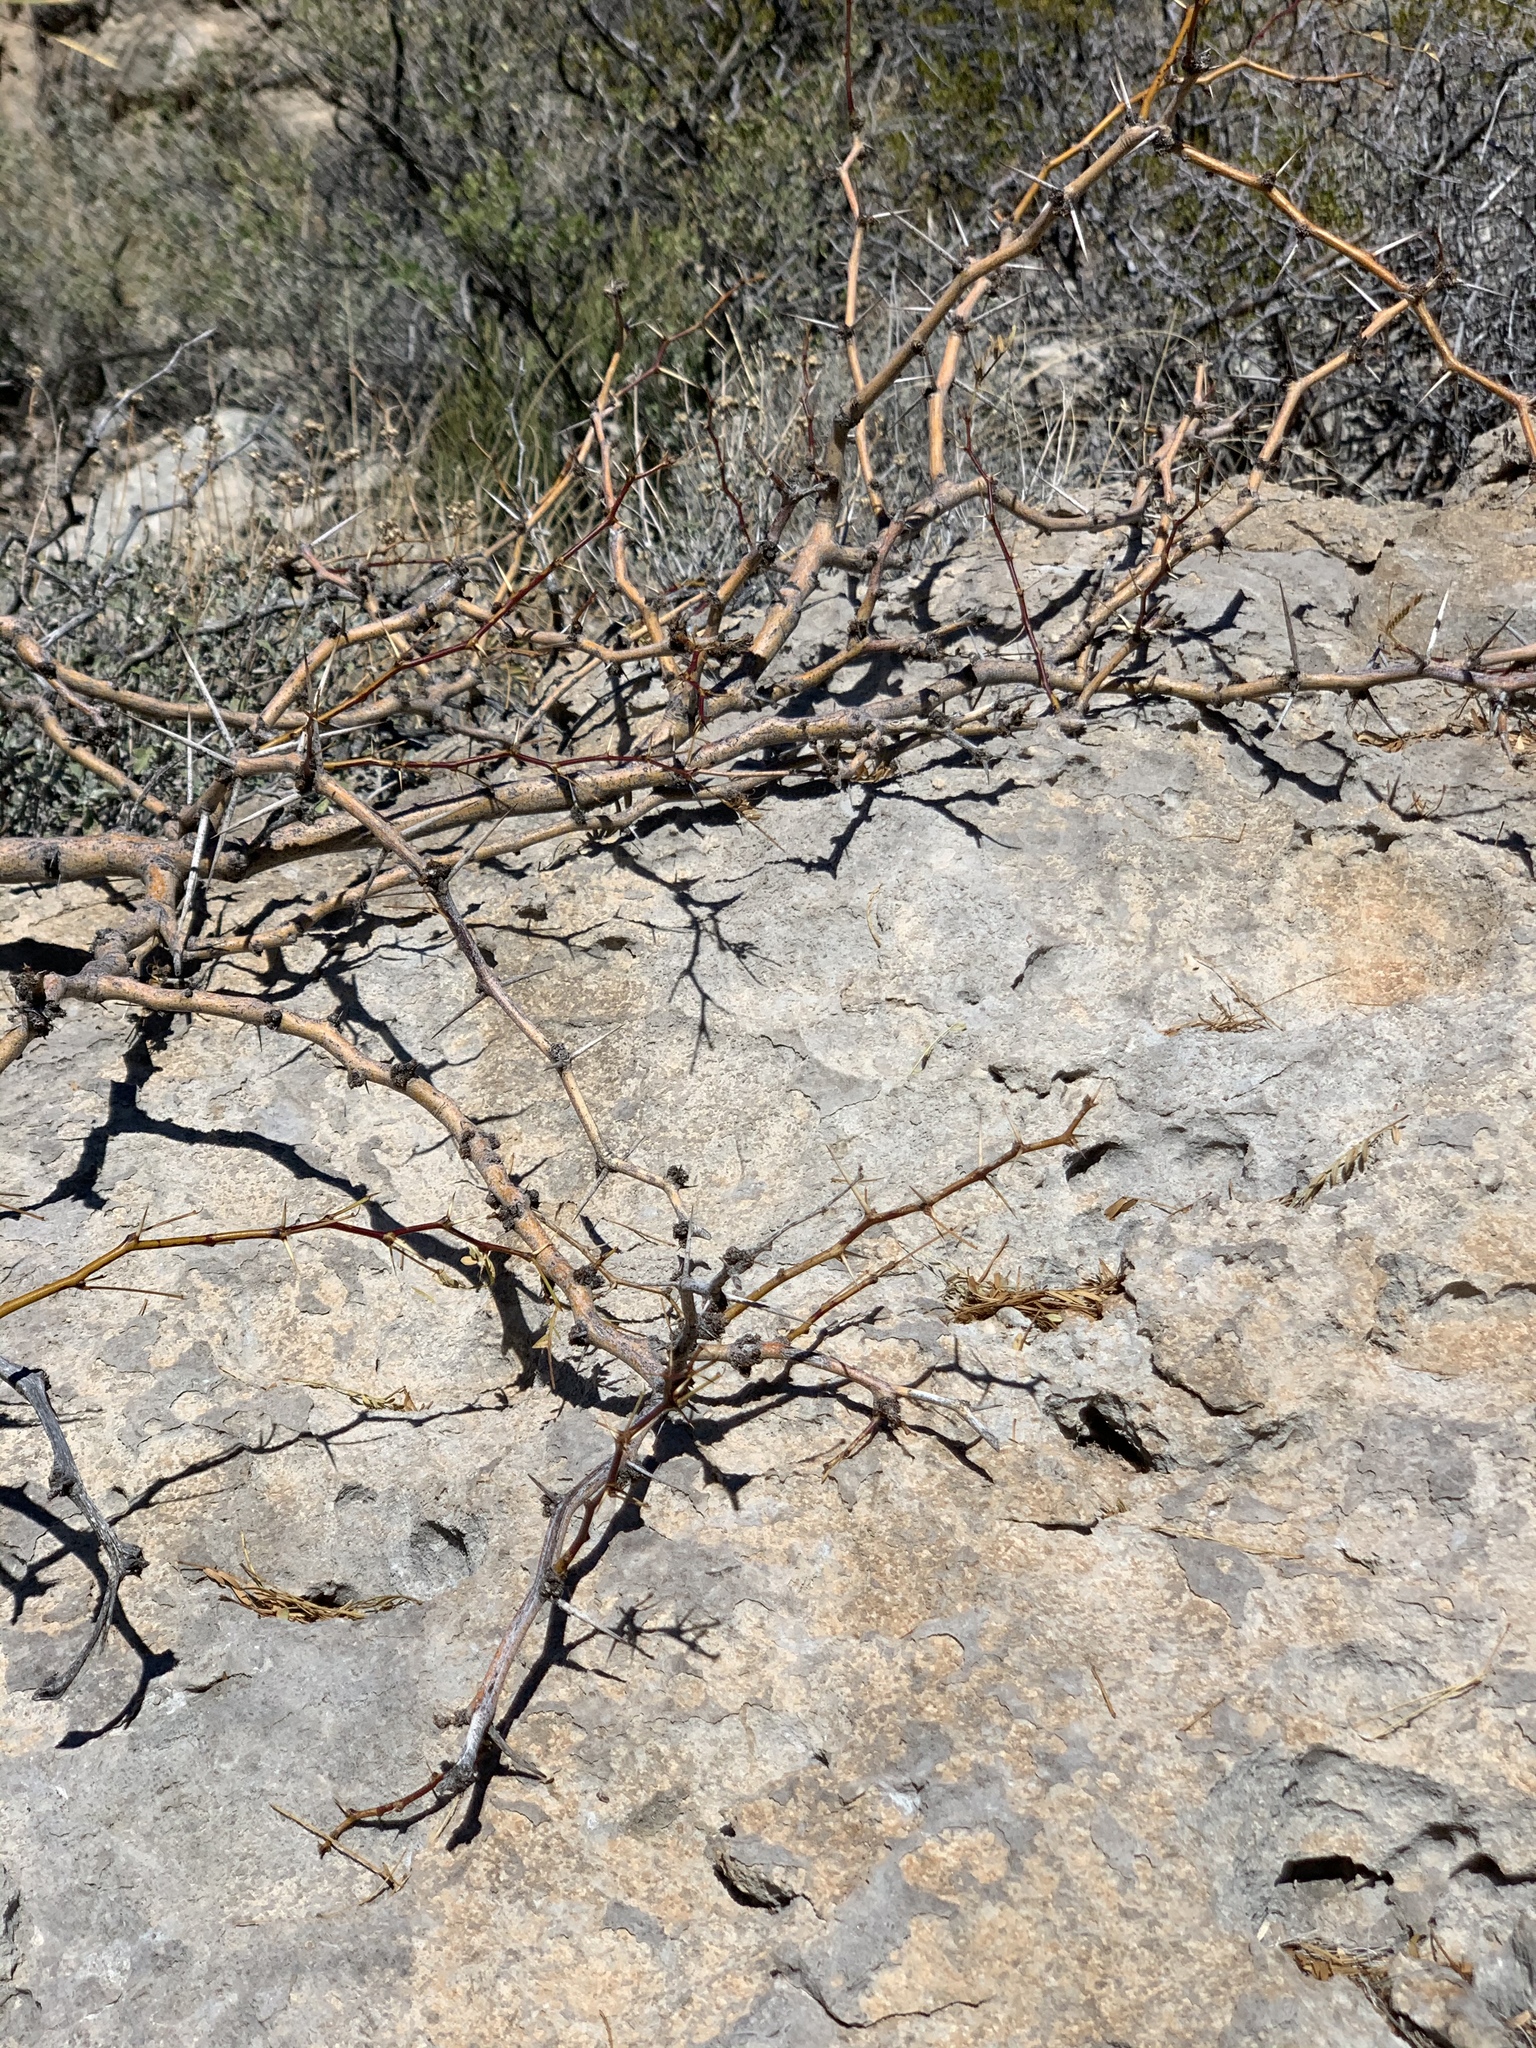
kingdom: Plantae
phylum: Tracheophyta
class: Magnoliopsida
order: Fabales
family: Fabaceae
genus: Prosopis
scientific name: Prosopis glandulosa
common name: Honey mesquite
